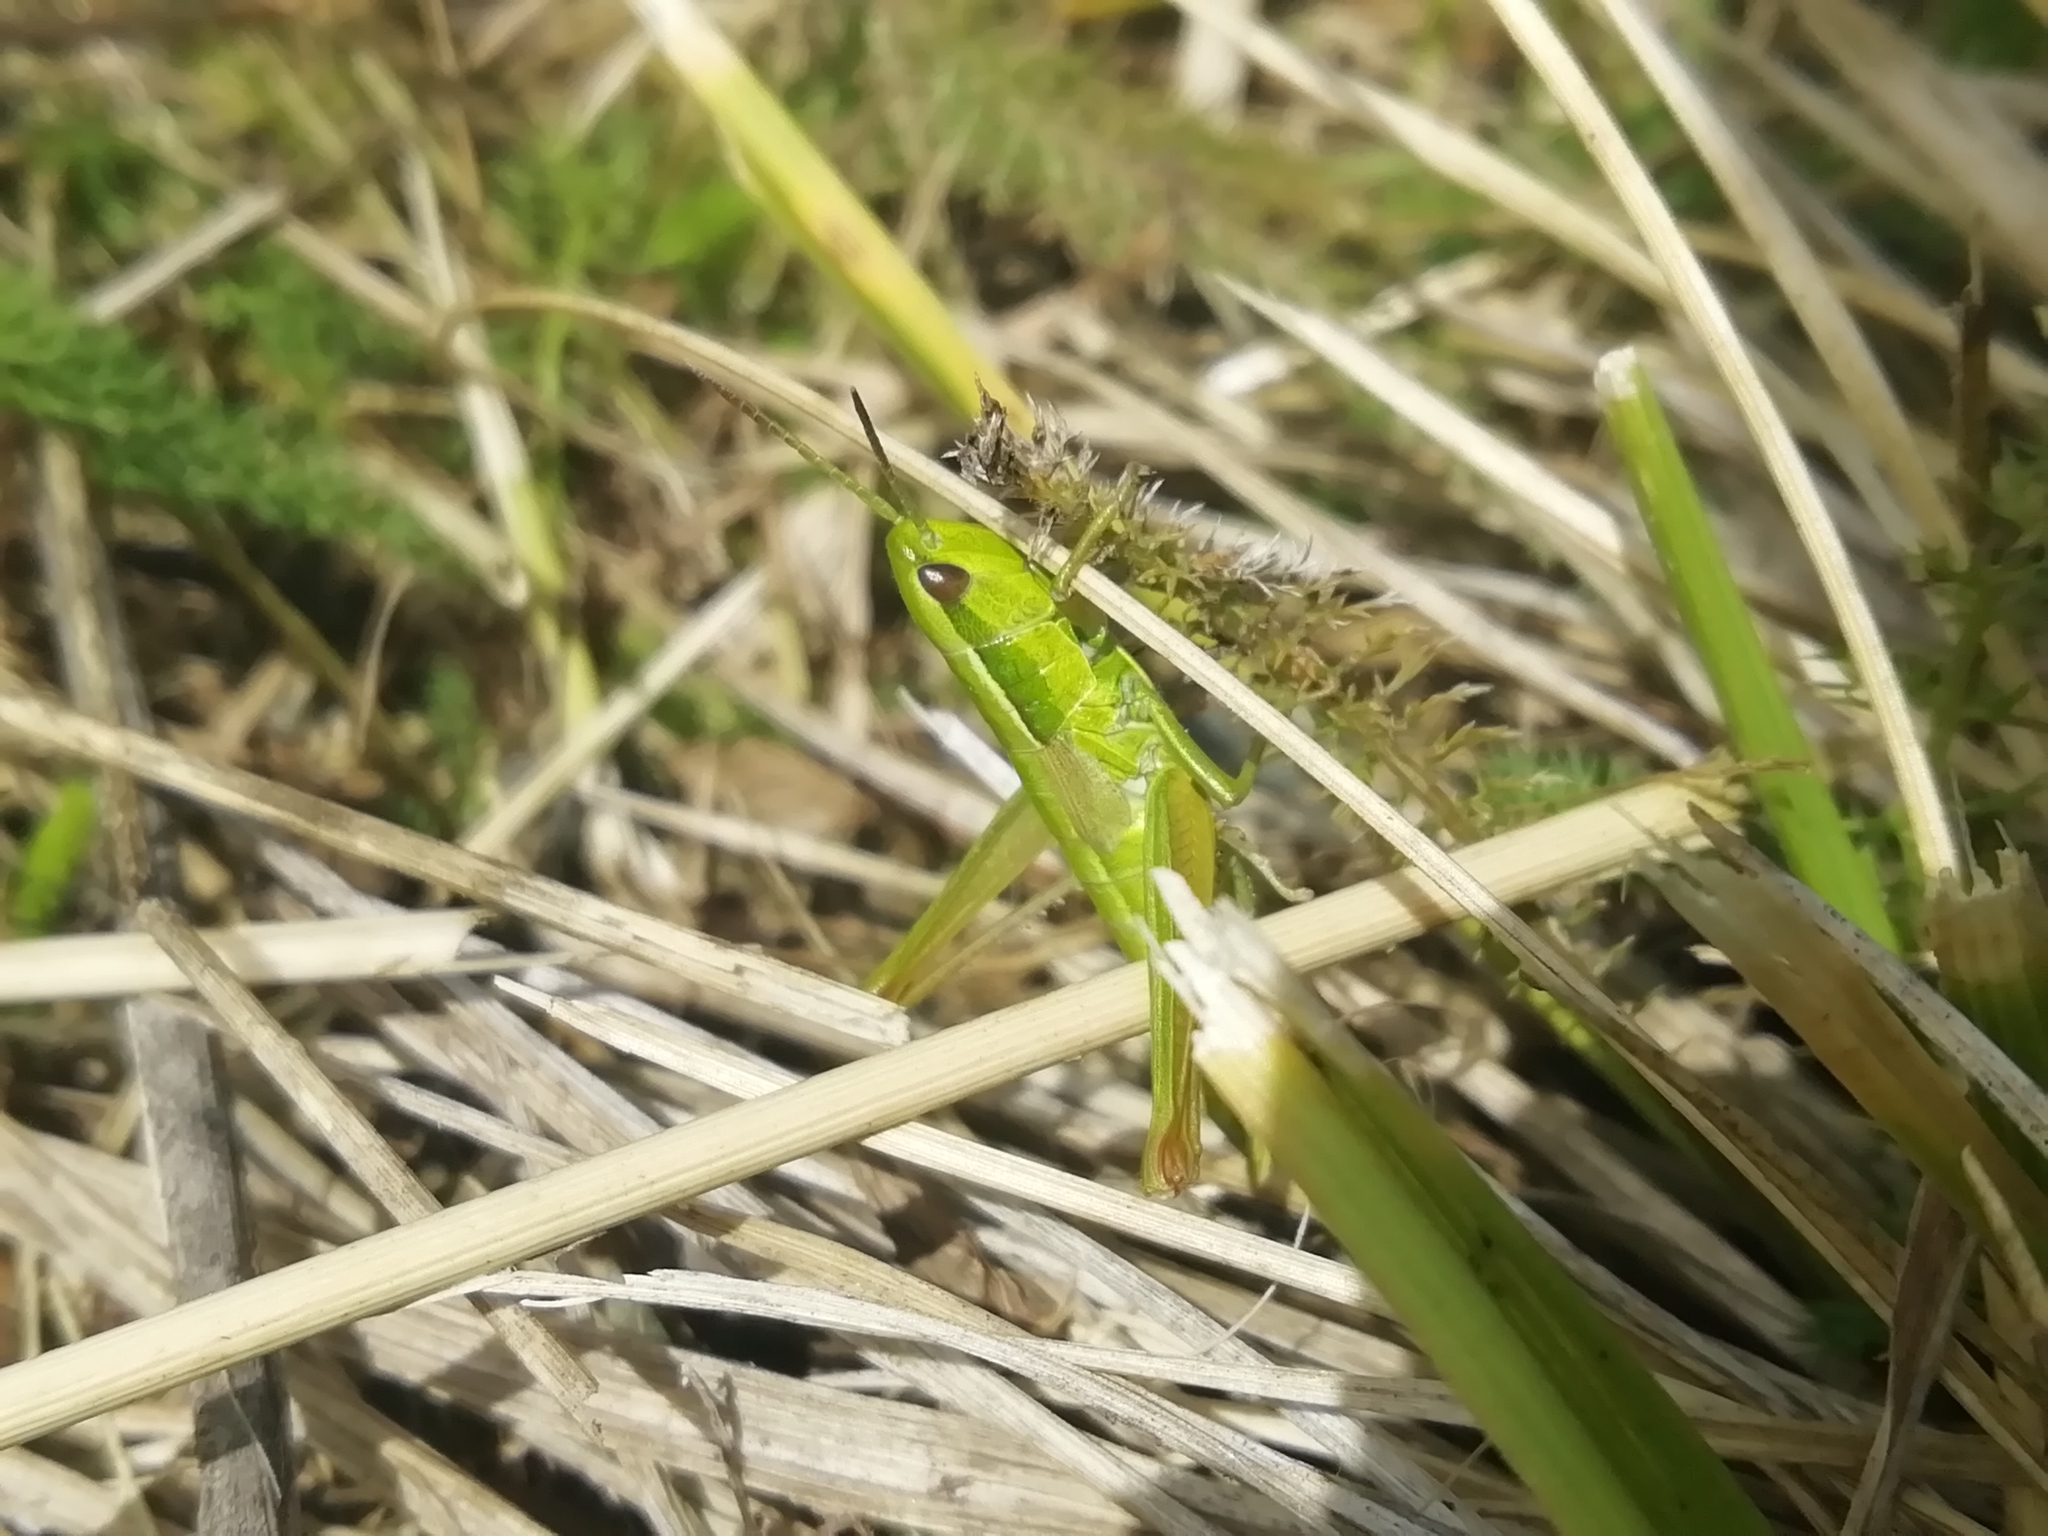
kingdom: Animalia
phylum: Arthropoda
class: Insecta
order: Orthoptera
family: Acrididae
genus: Euthystira
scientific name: Euthystira brachyptera
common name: Small gold grasshopper
